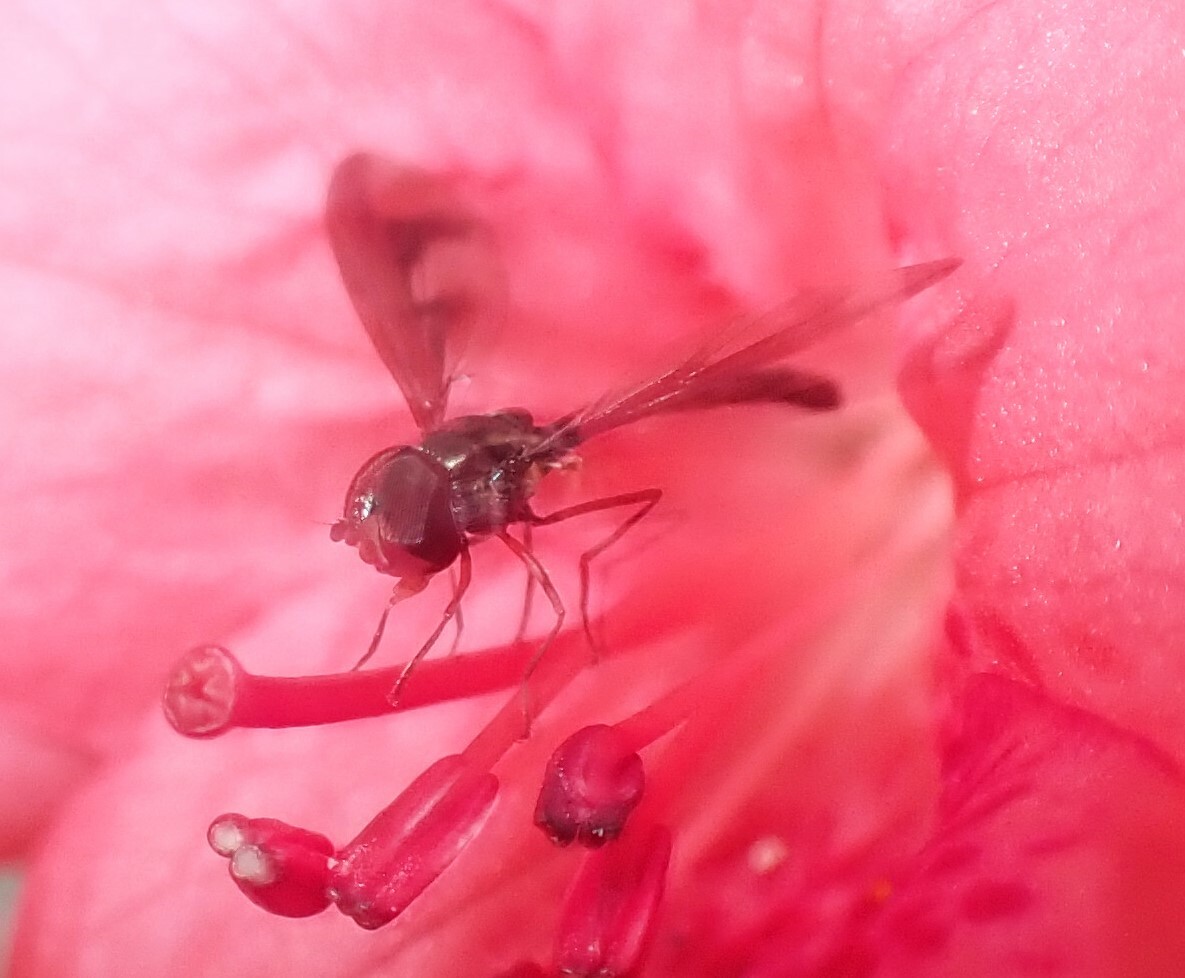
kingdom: Animalia
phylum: Arthropoda
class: Insecta
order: Diptera
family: Syrphidae
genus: Ocyptamus
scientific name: Ocyptamus fuscipennis
